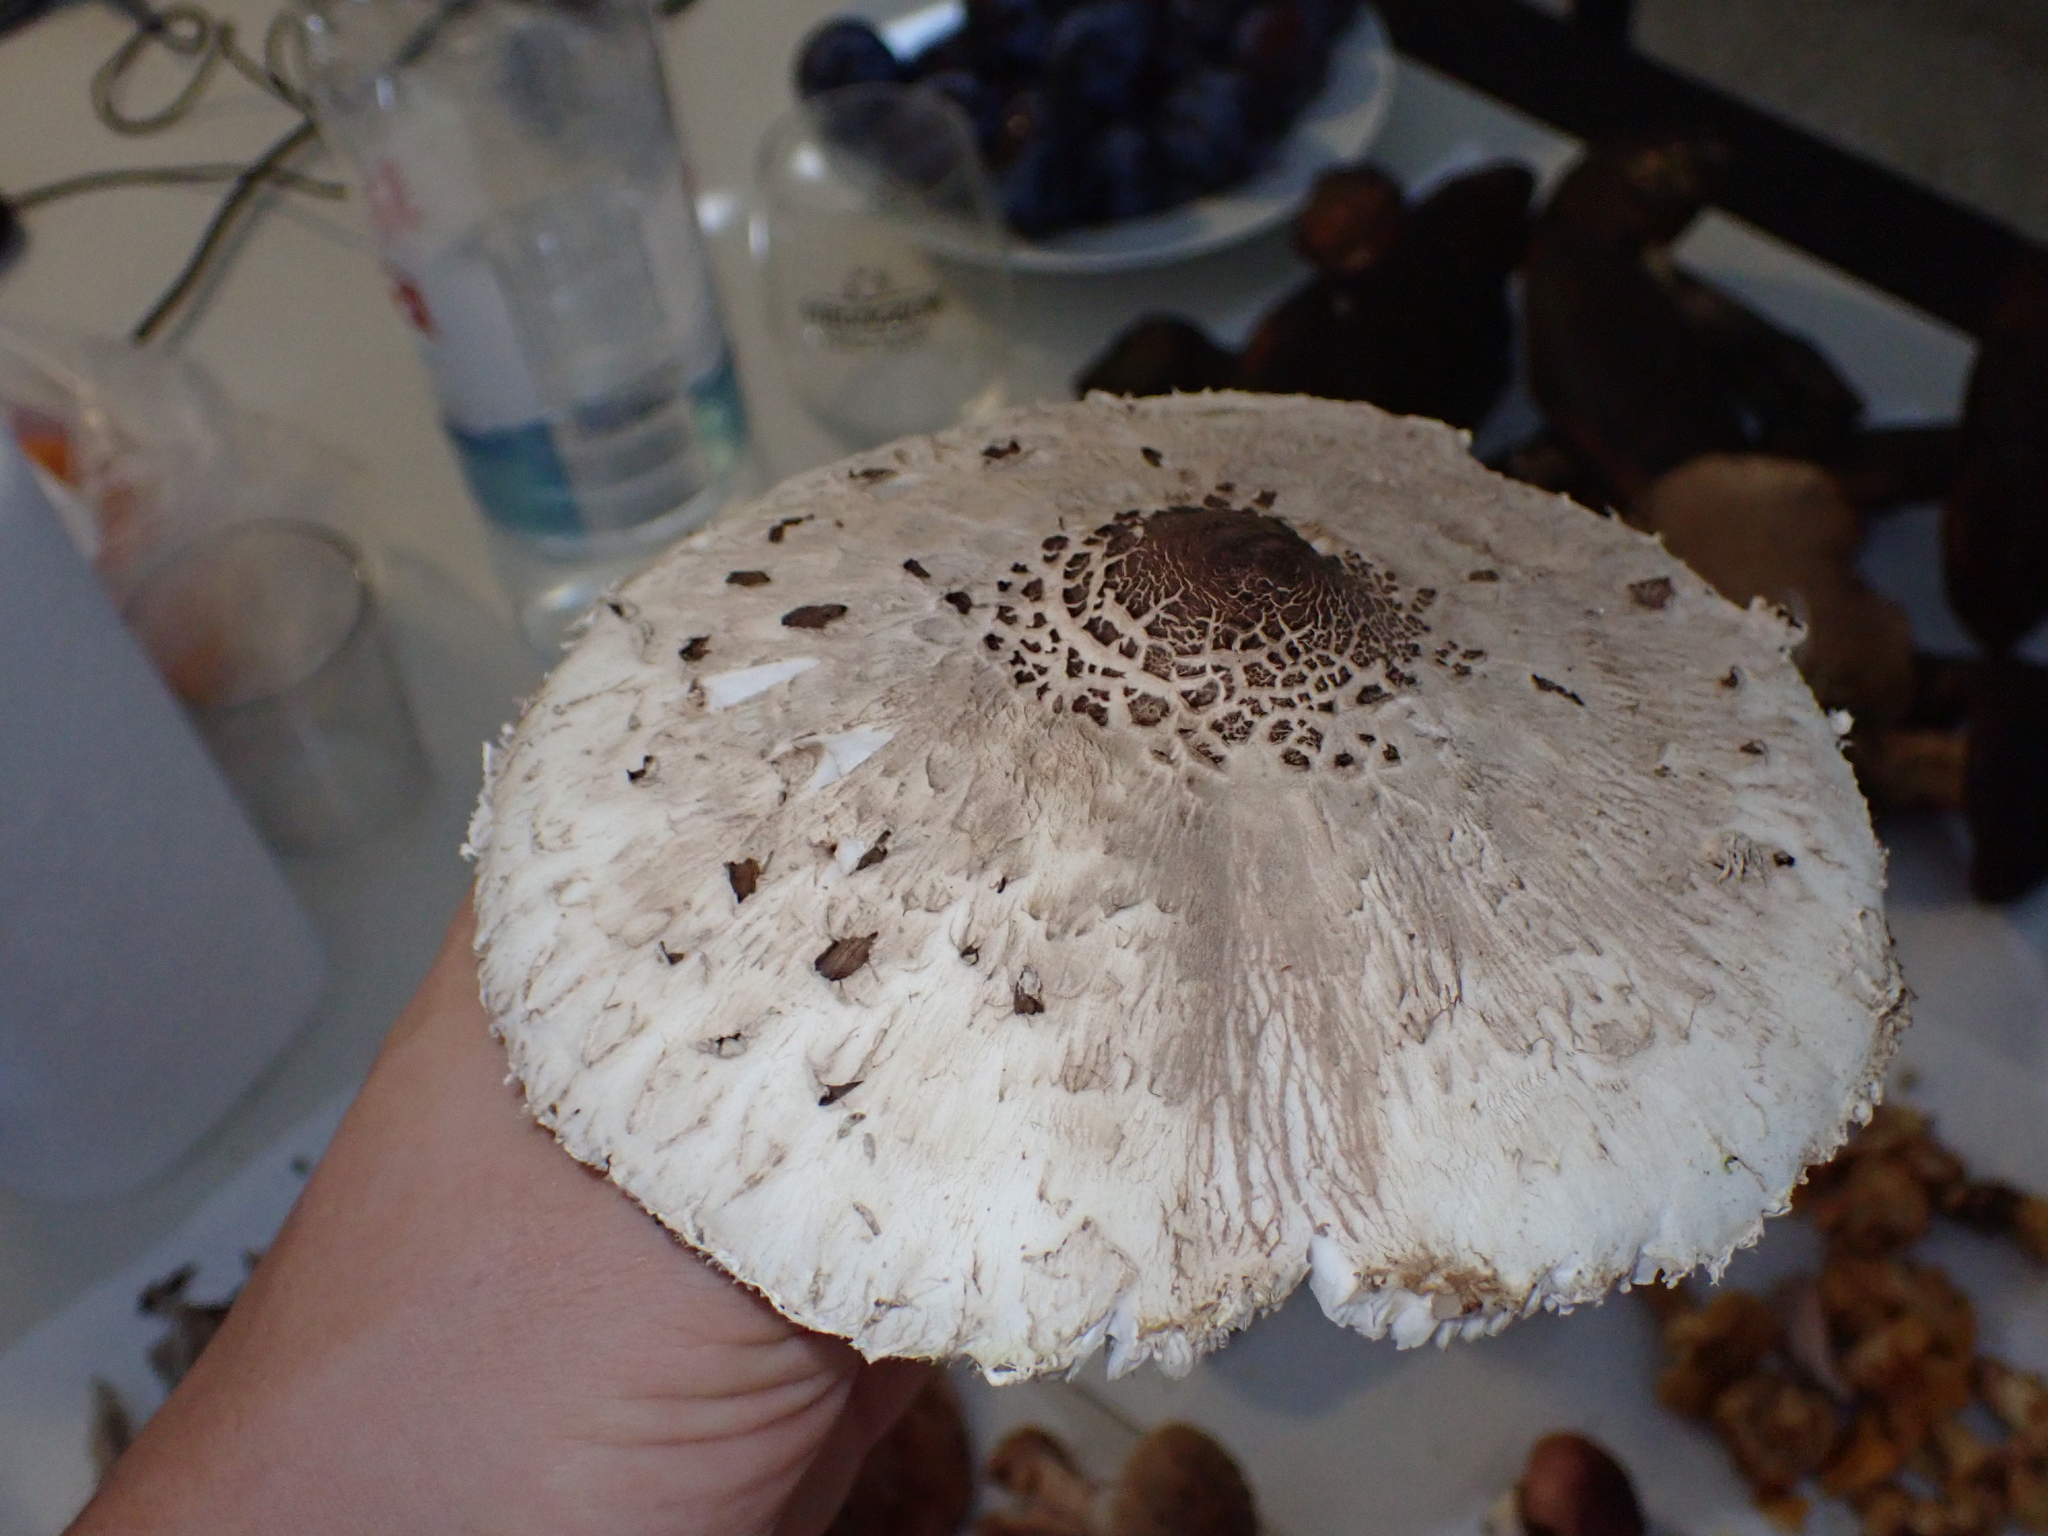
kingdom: Fungi
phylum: Basidiomycota
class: Agaricomycetes
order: Agaricales
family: Agaricaceae
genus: Macrolepiota
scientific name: Macrolepiota procera
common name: Parasol
